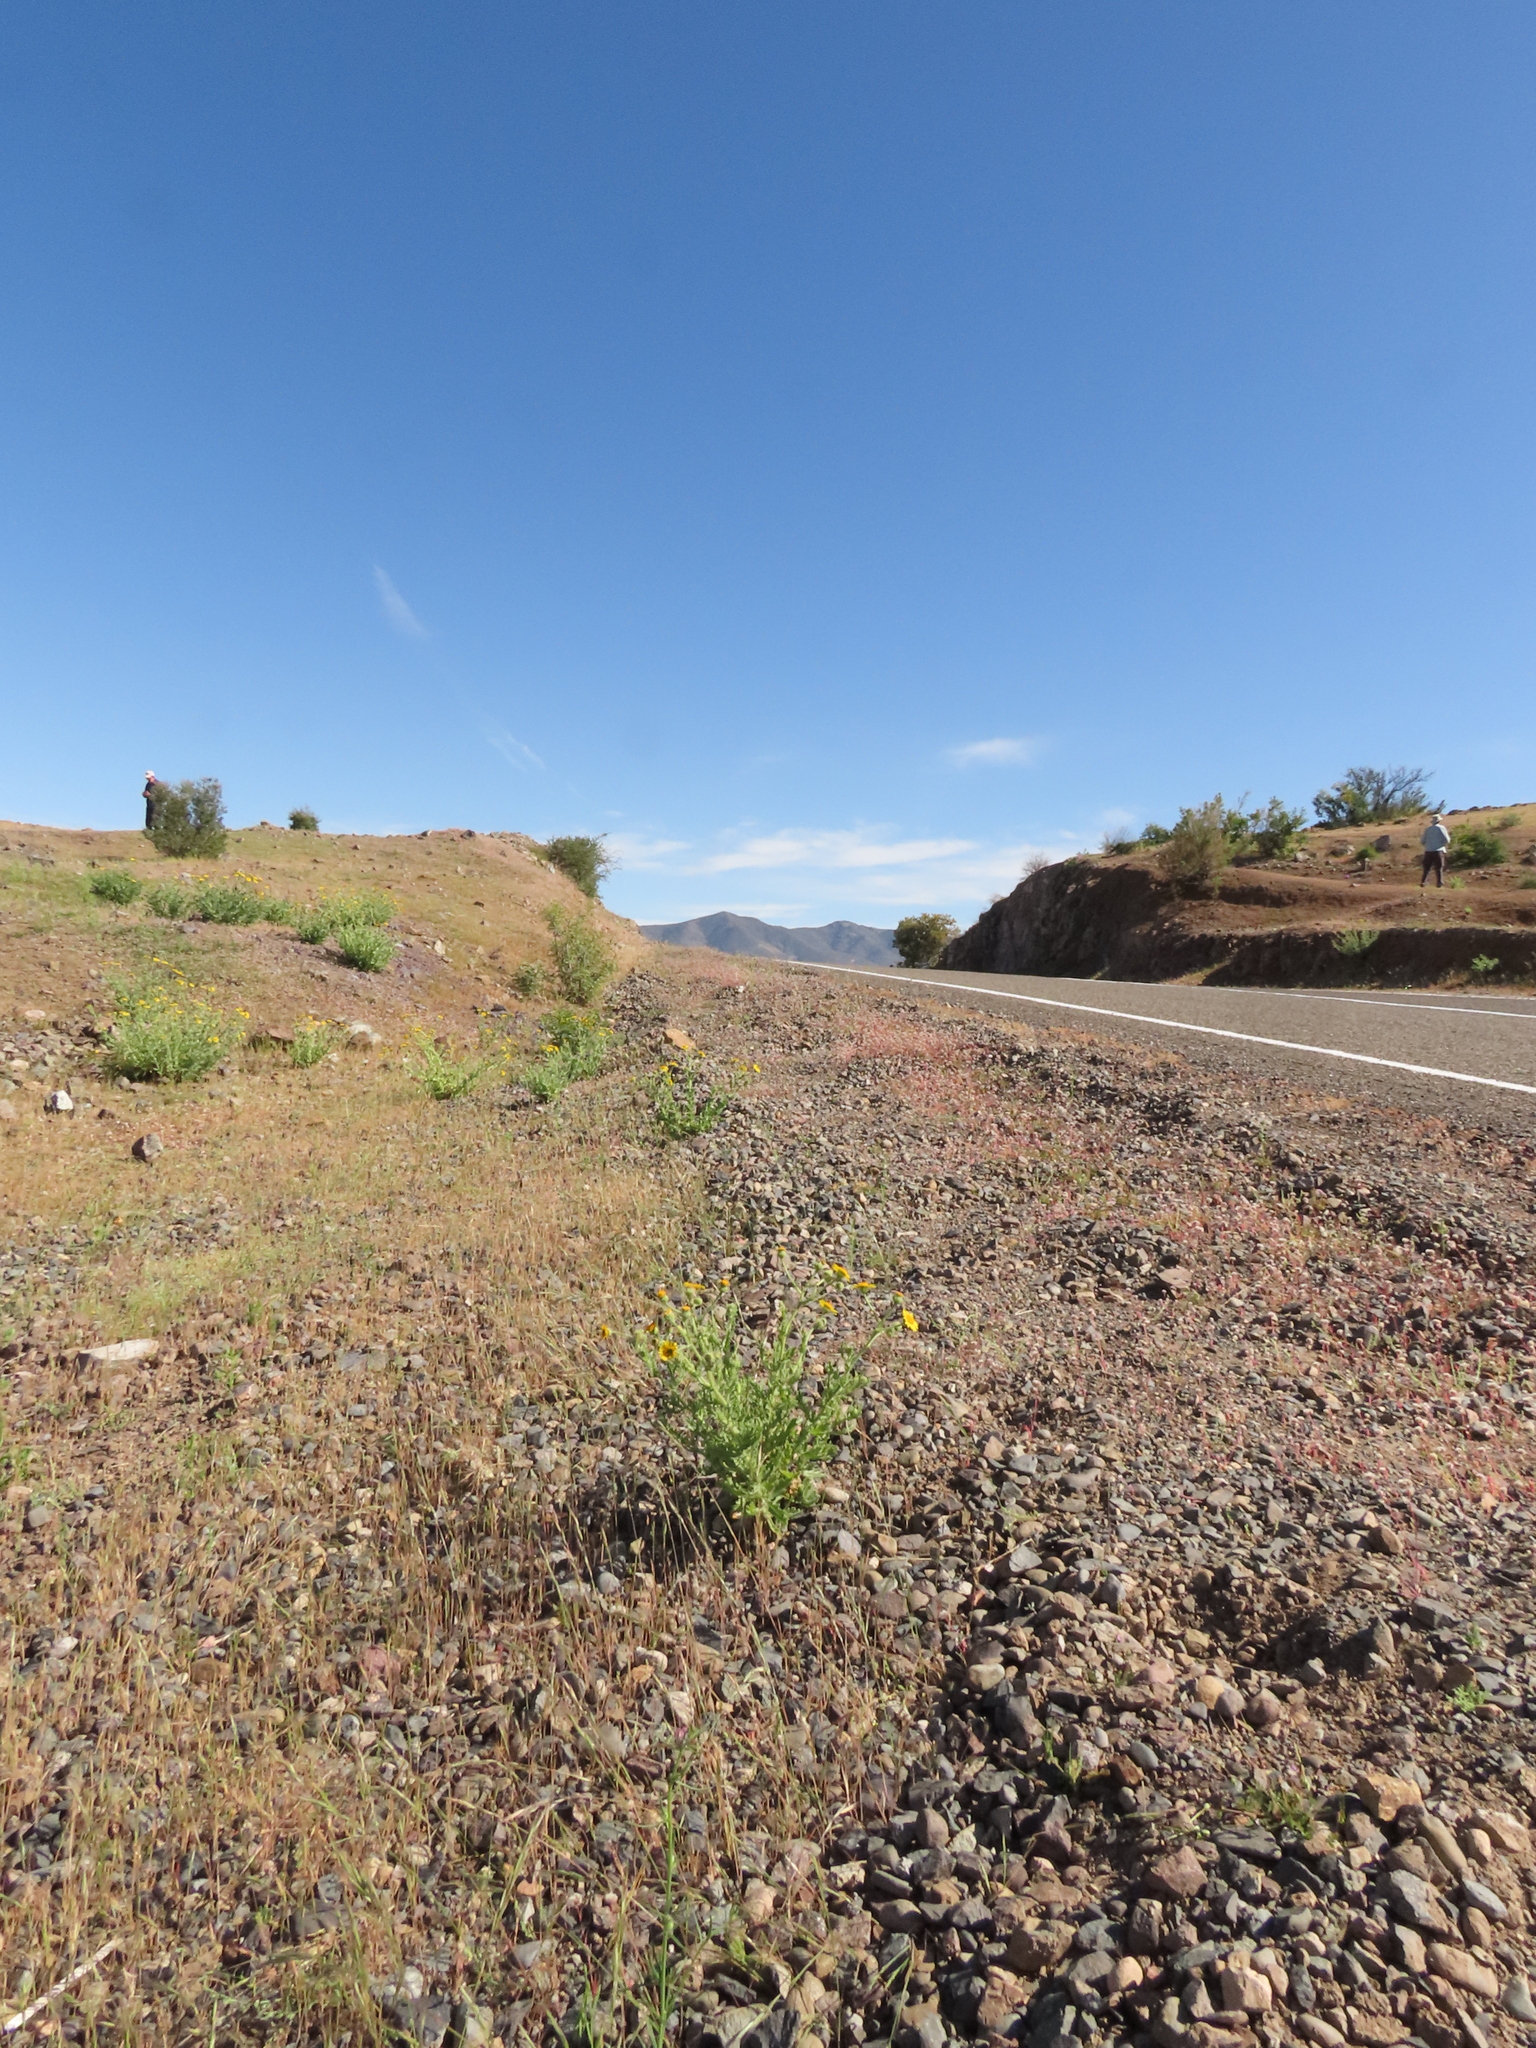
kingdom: Plantae
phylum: Tracheophyta
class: Magnoliopsida
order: Lamiales
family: Plantaginaceae
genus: Misopates
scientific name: Misopates orontium
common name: Weasel's-snout
